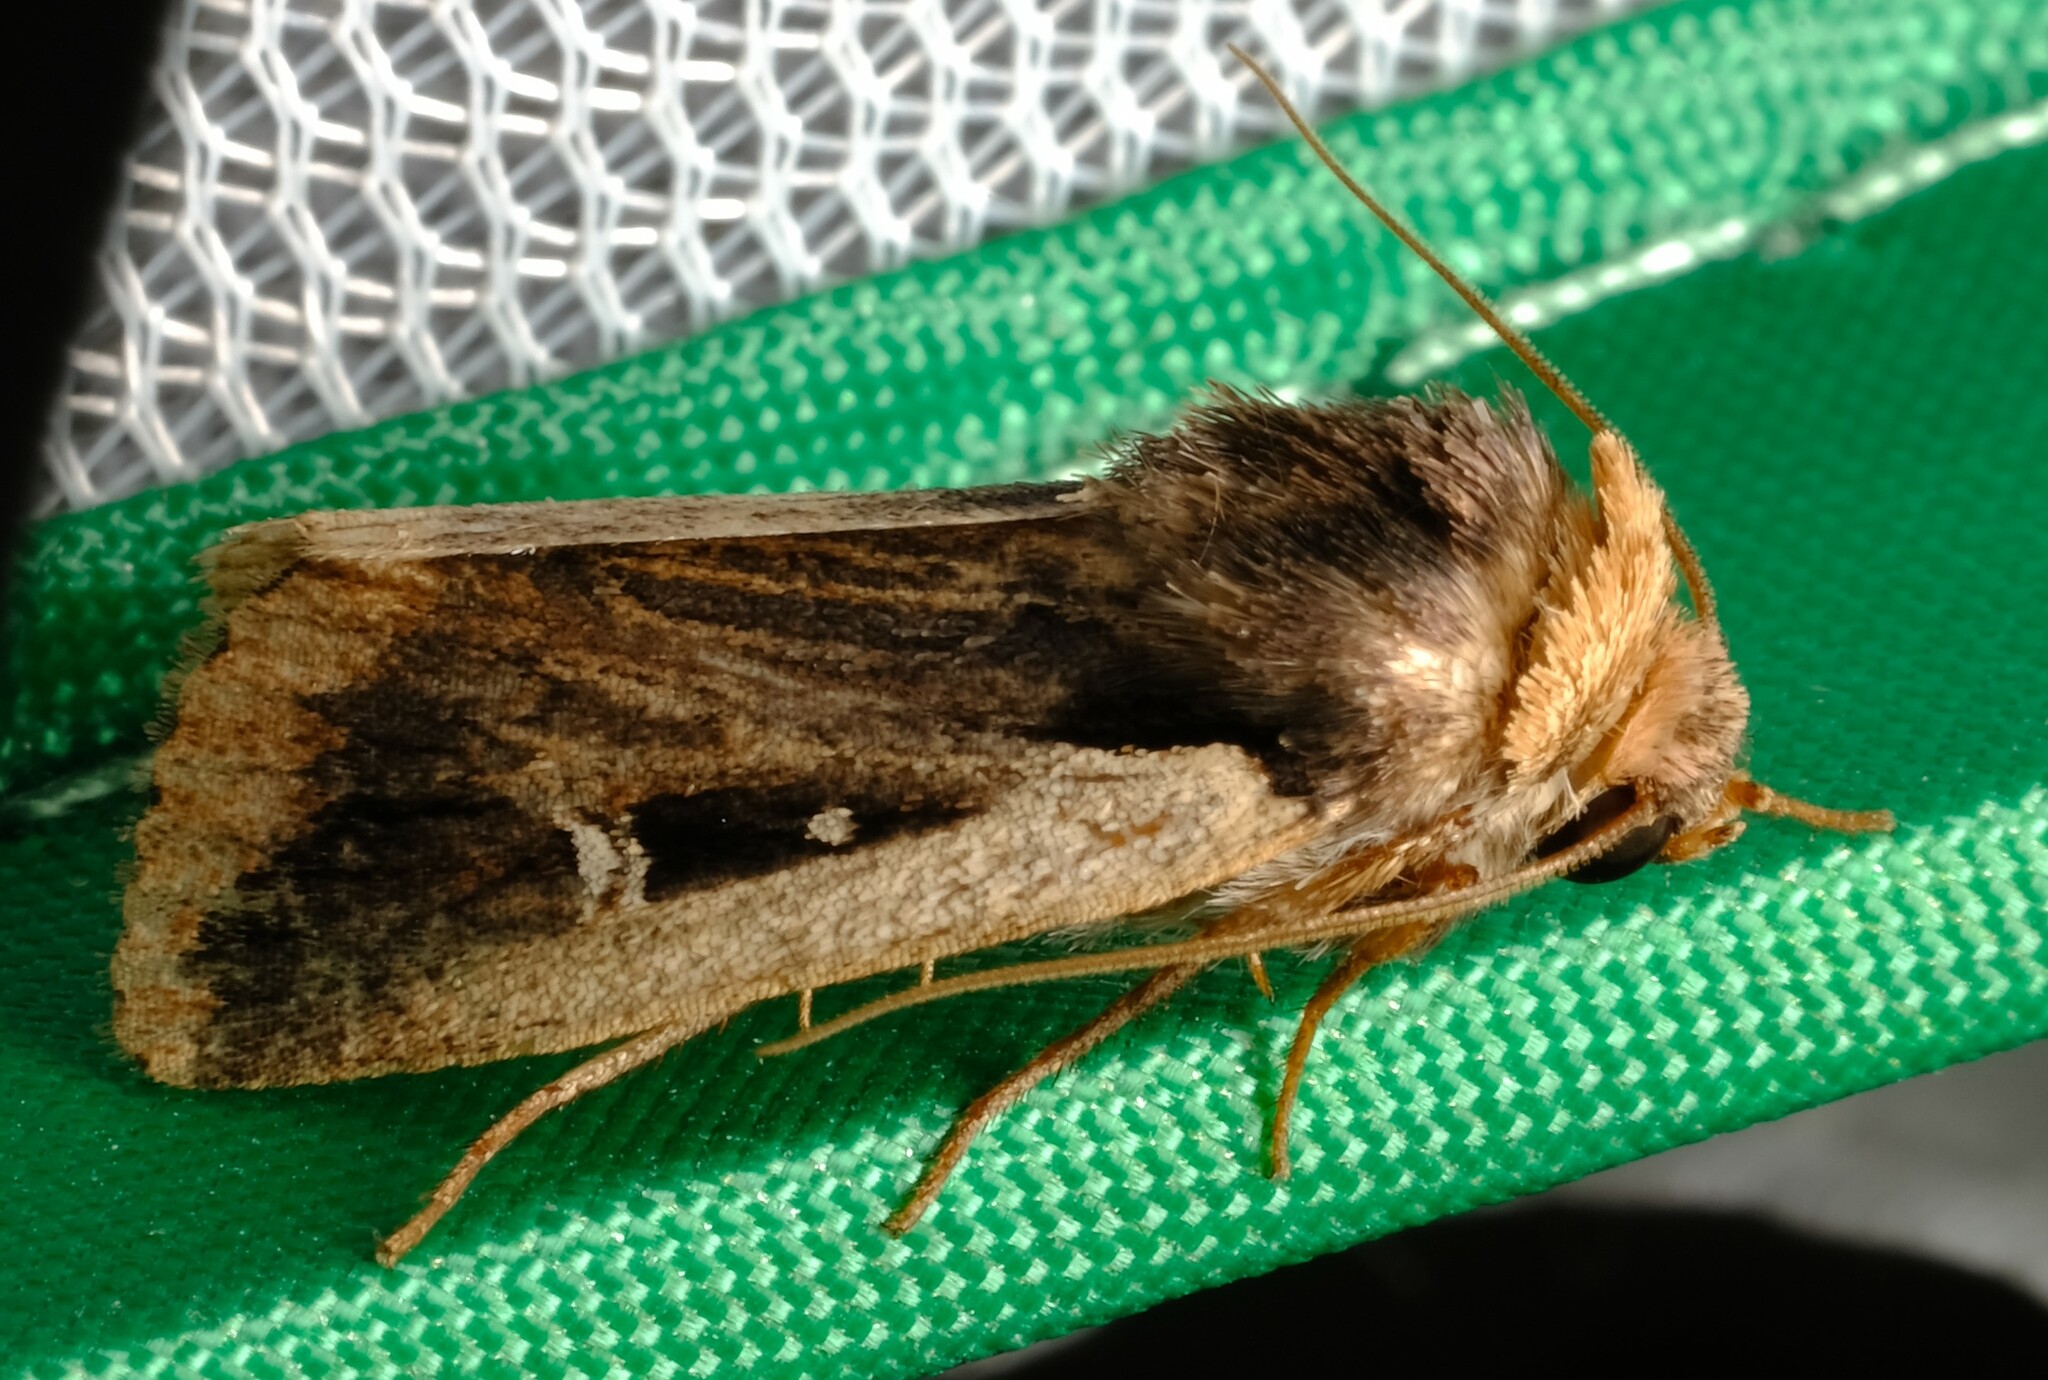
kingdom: Animalia
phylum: Arthropoda
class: Insecta
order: Lepidoptera
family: Noctuidae
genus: Proteuxoa
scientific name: Proteuxoa tortisigna
